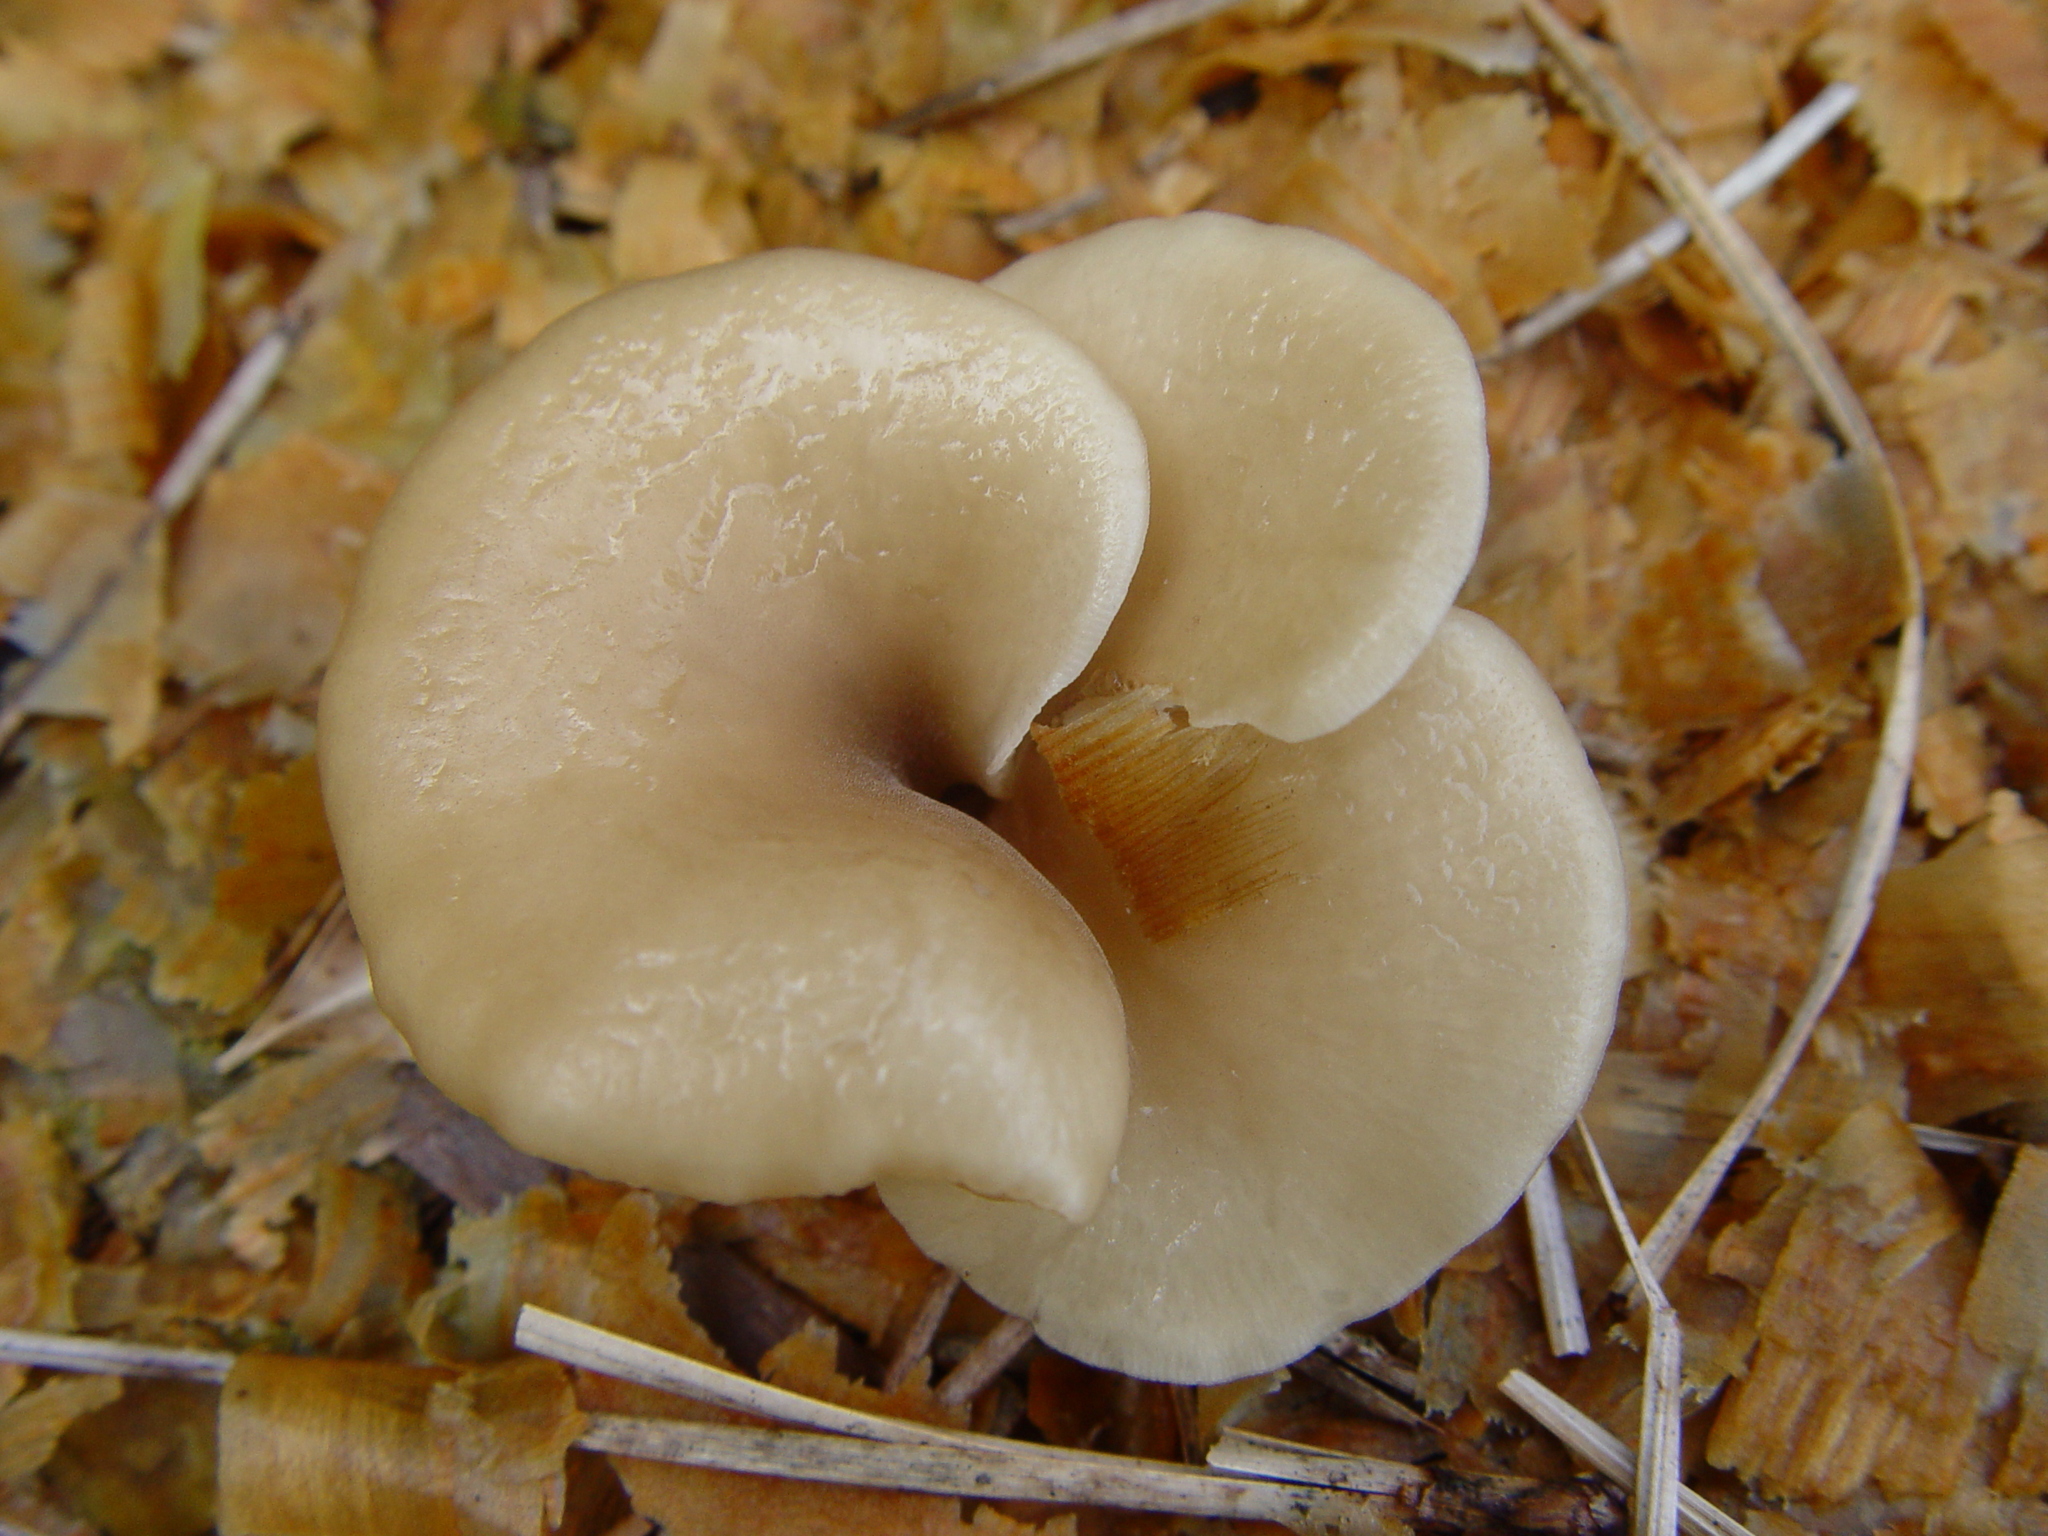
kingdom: Fungi
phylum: Basidiomycota
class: Agaricomycetes
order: Agaricales
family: Pleurotaceae
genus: Hohenbuehelia
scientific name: Hohenbuehelia petaloides
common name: Shoehorn oyster
